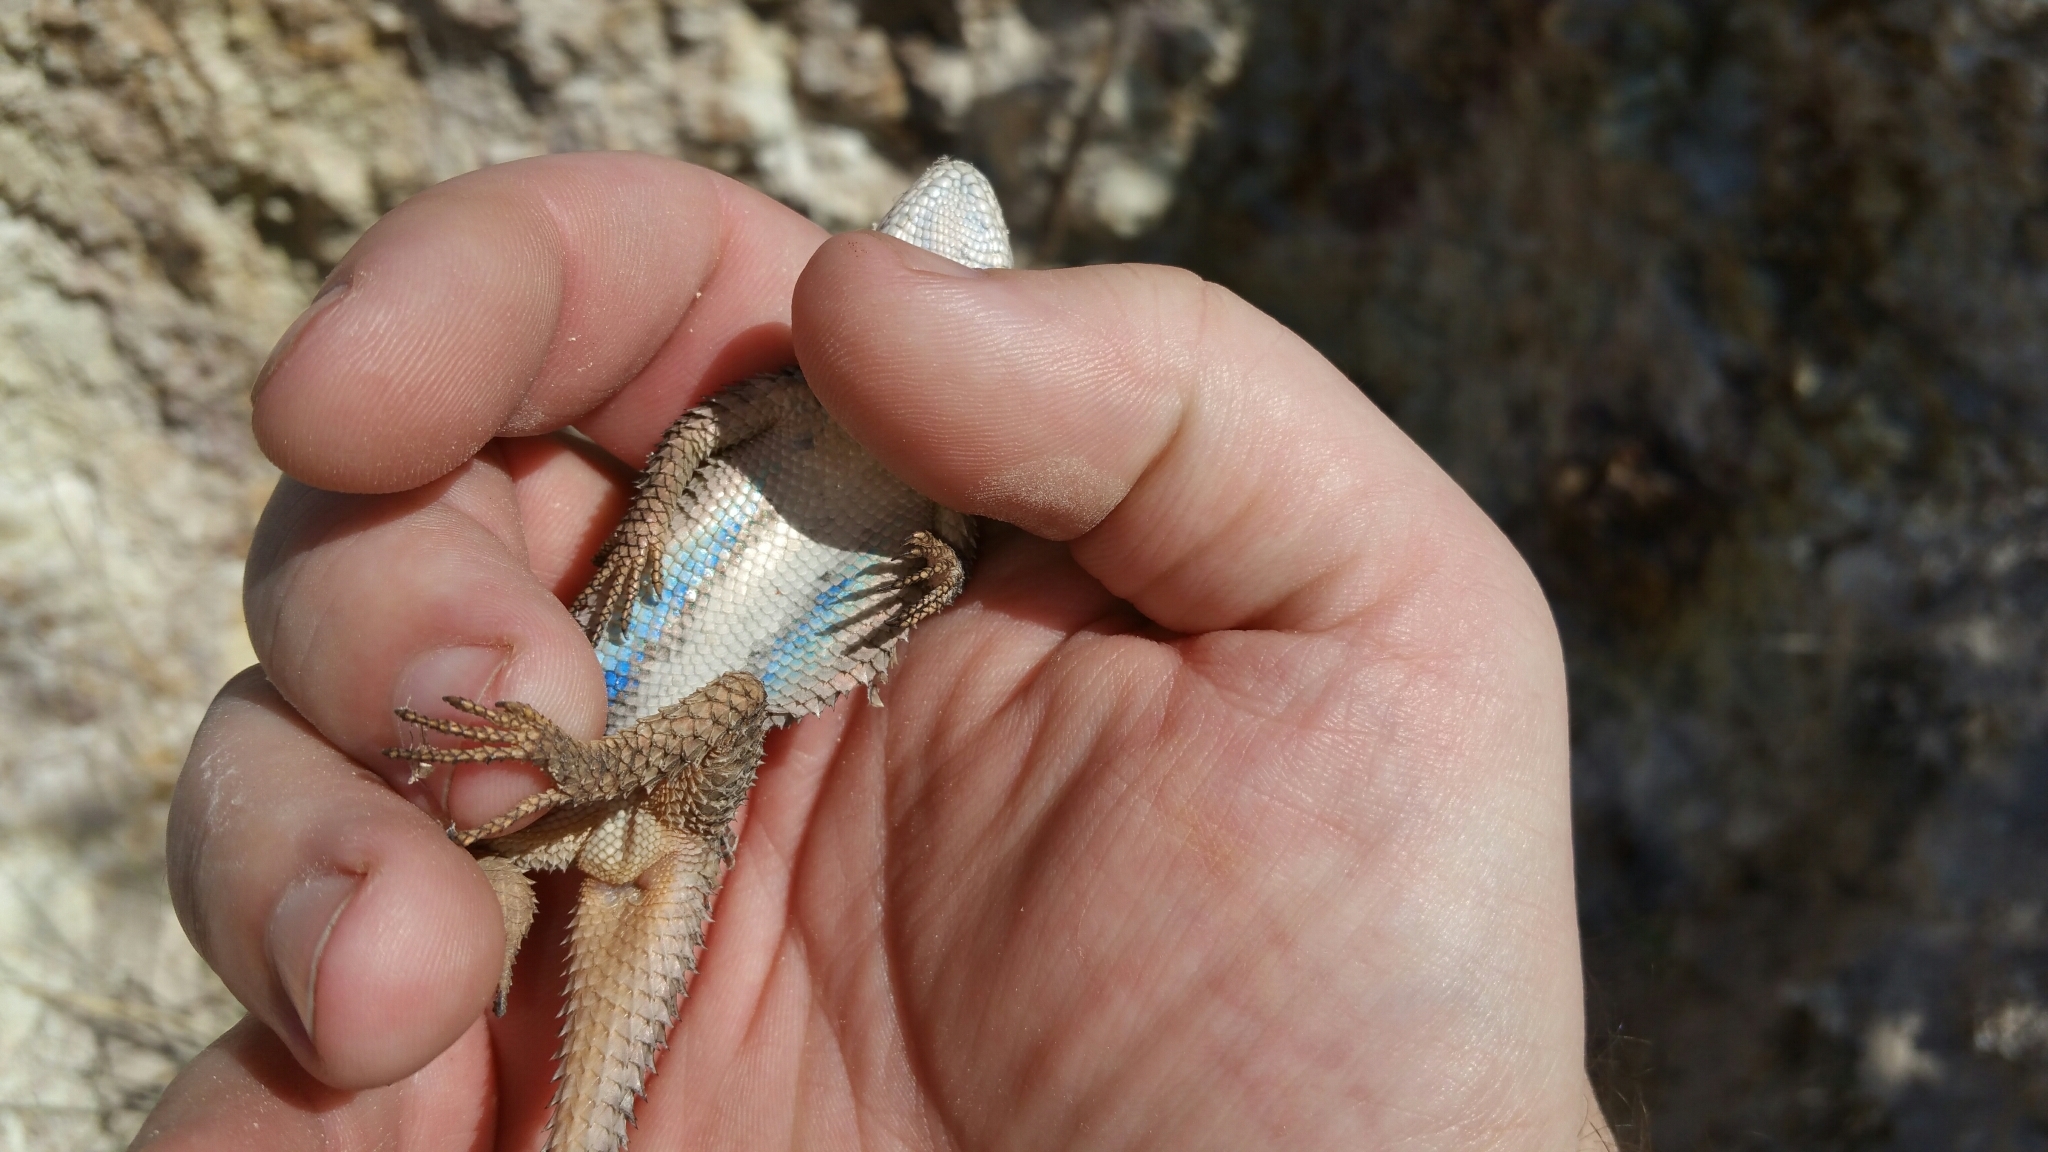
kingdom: Animalia
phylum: Chordata
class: Squamata
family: Phrynosomatidae
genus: Sceloporus
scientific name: Sceloporus poinsettii
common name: Crevice spiny lizard
